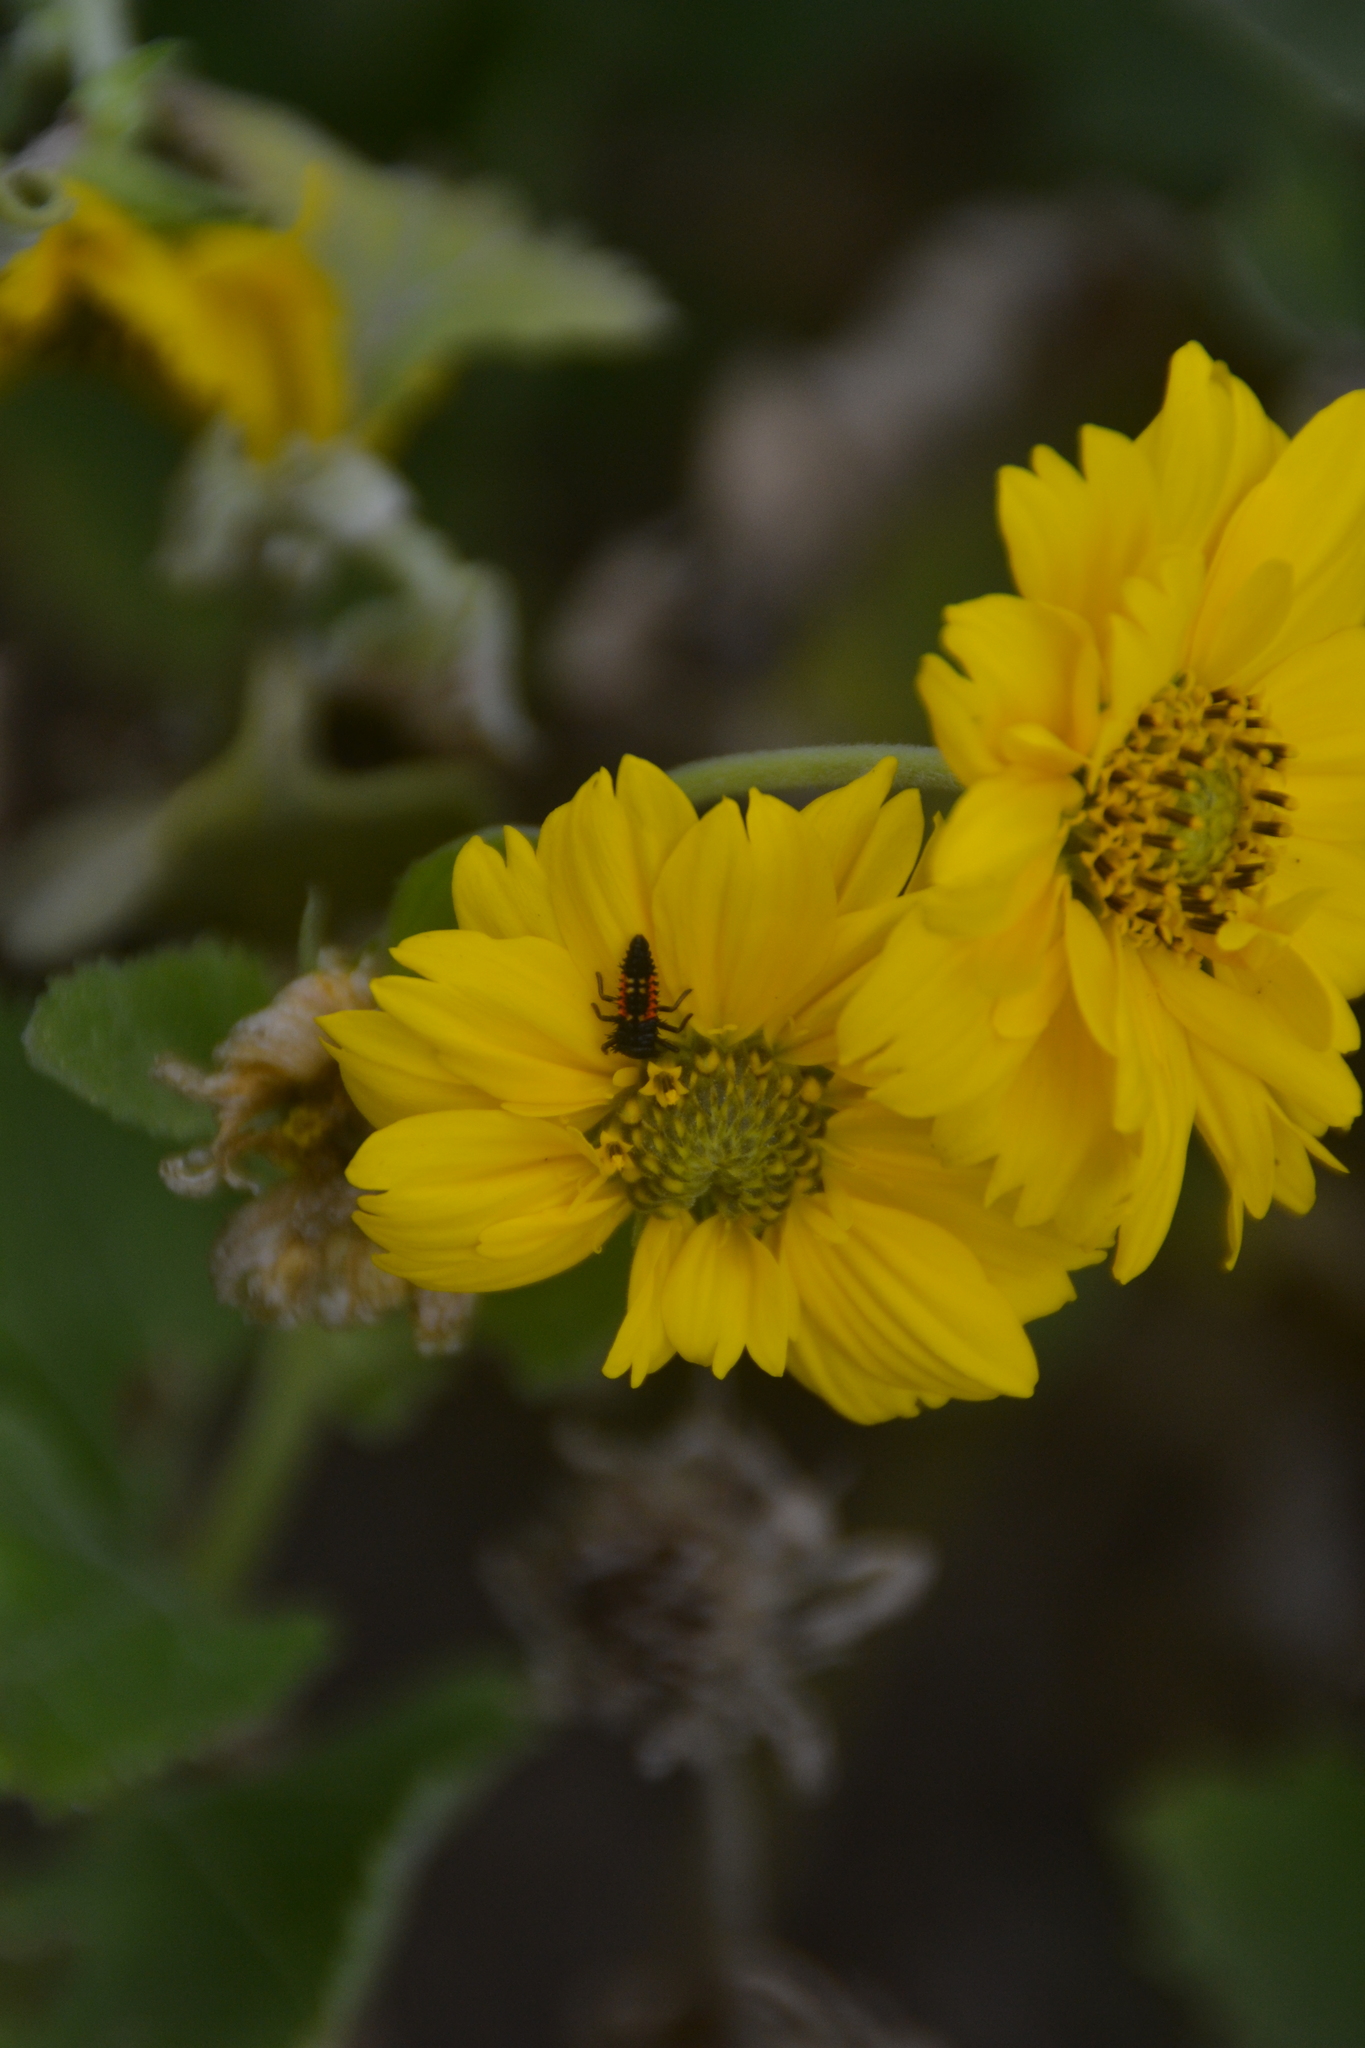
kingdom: Animalia
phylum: Arthropoda
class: Insecta
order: Coleoptera
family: Coccinellidae
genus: Harmonia
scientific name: Harmonia axyridis
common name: Harlequin ladybird
